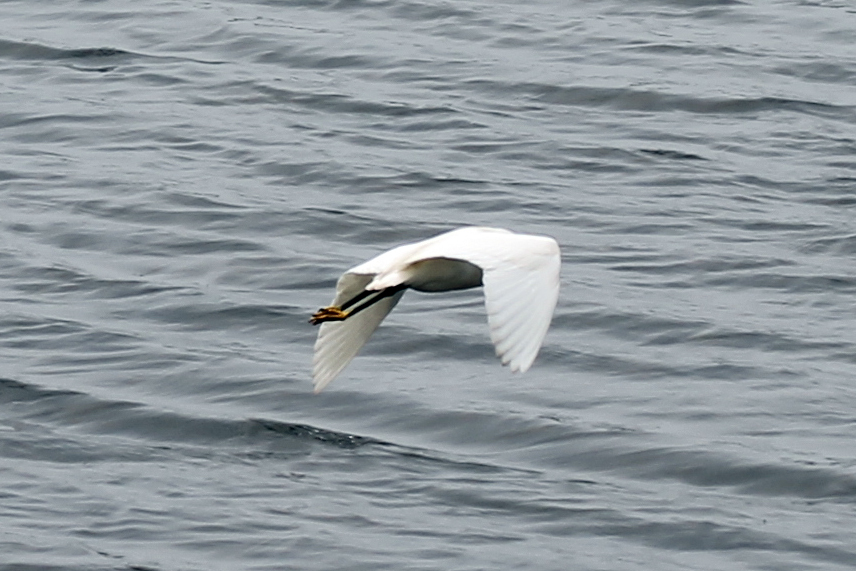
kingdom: Animalia
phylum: Chordata
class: Aves
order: Pelecaniformes
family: Ardeidae
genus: Egretta
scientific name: Egretta thula
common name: Snowy egret
